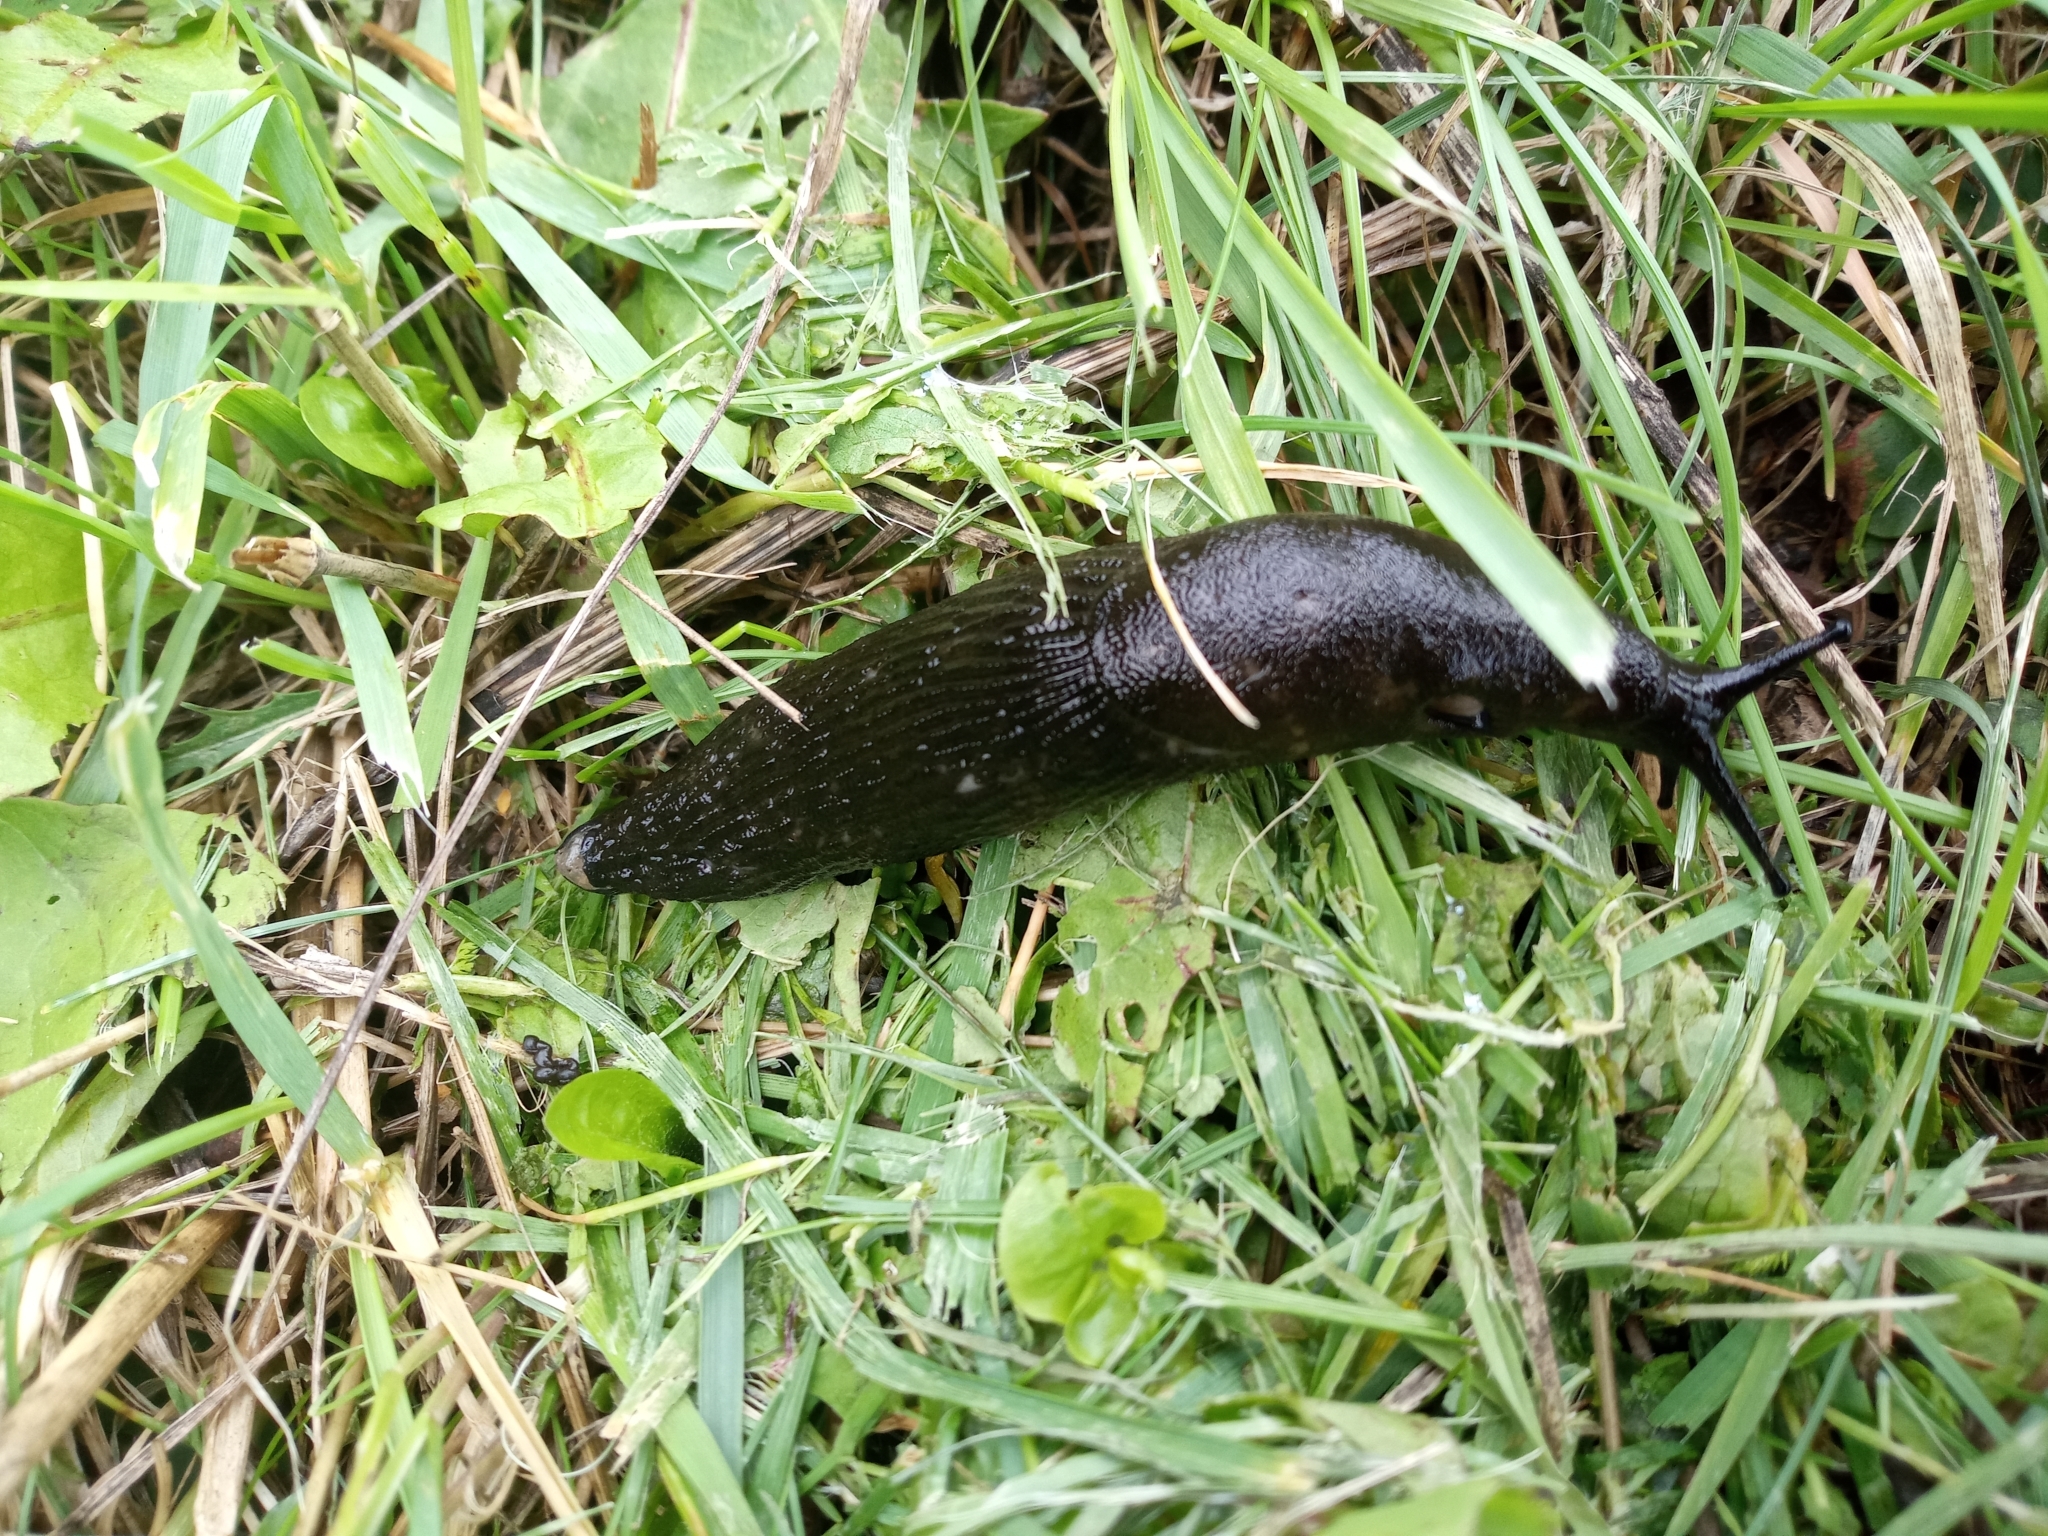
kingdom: Animalia
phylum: Mollusca
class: Gastropoda
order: Stylommatophora
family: Arionidae
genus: Arion
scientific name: Arion
